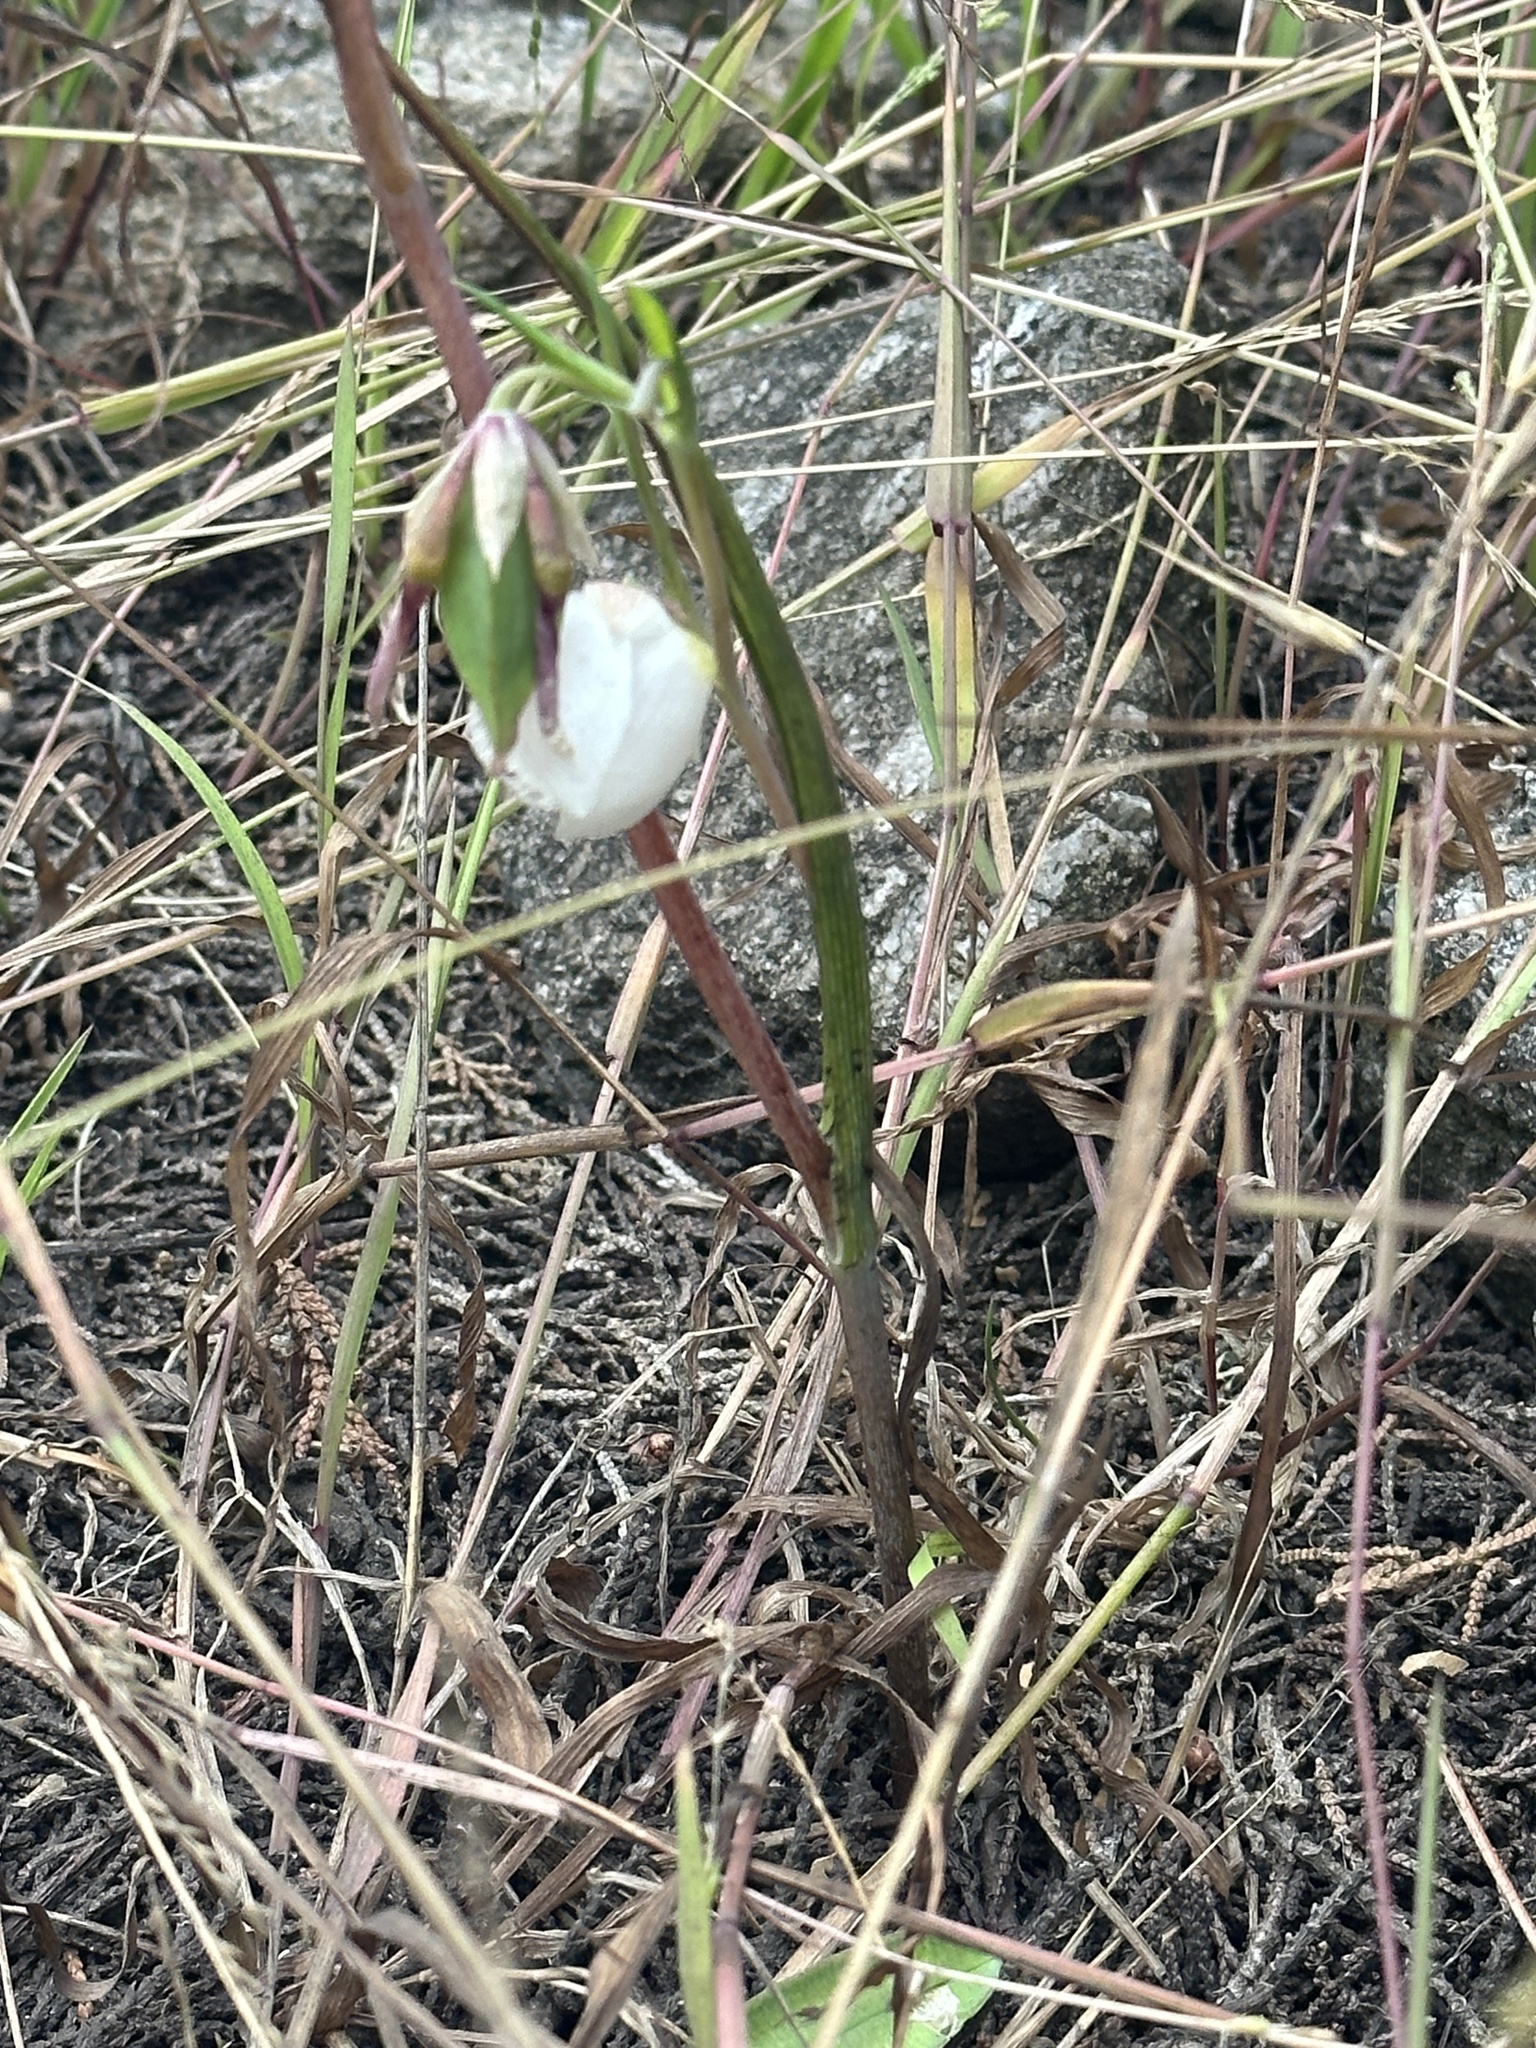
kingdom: Plantae
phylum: Tracheophyta
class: Liliopsida
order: Liliales
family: Liliaceae
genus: Calochortus
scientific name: Calochortus albus
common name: Fairy-lantern
